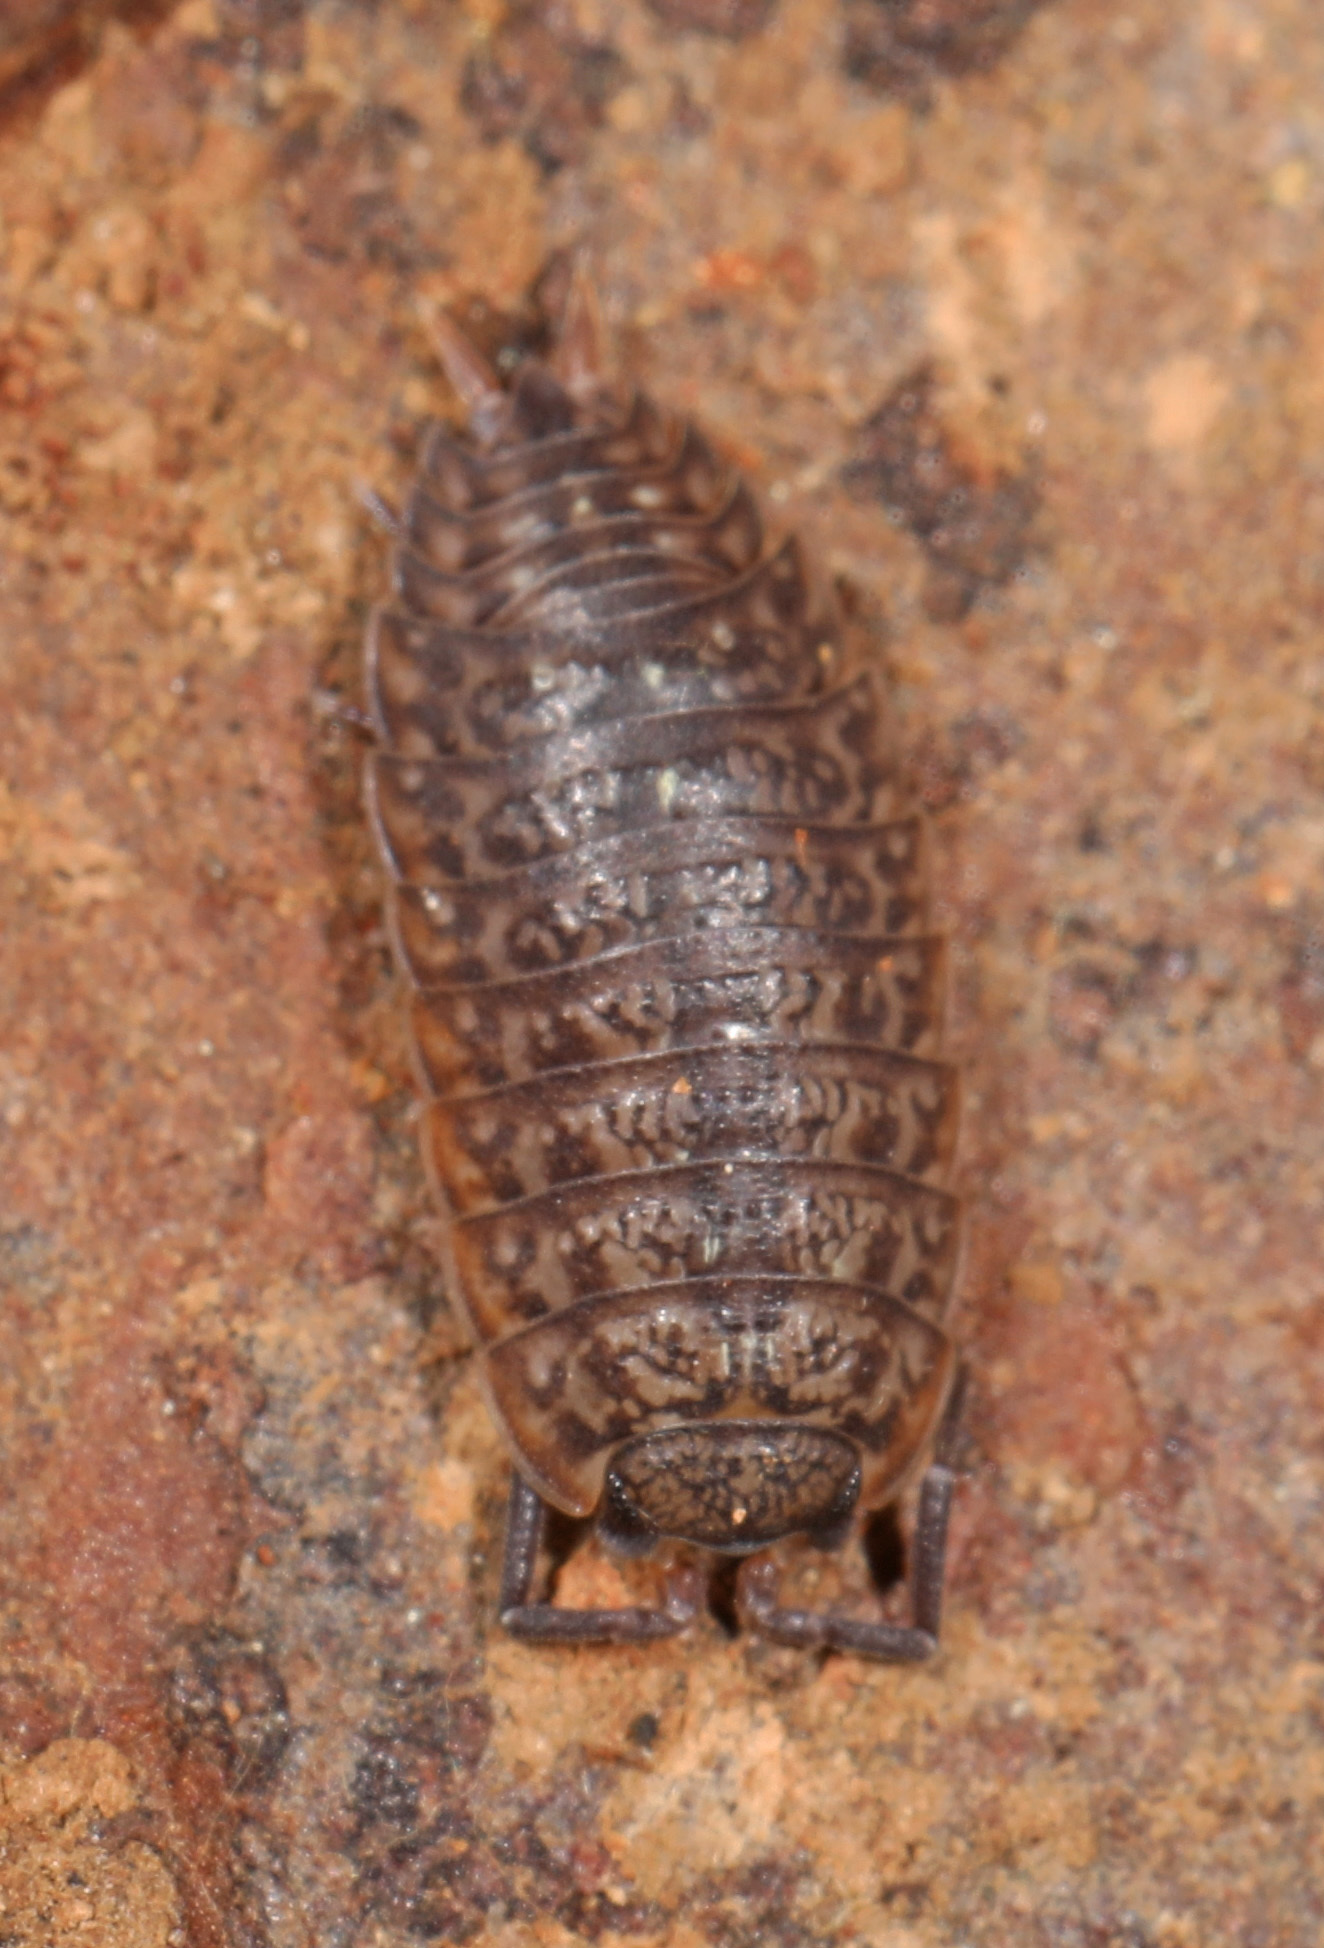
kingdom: Animalia
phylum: Arthropoda
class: Malacostraca
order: Isopoda
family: Porcellionidae
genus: Porcellionides
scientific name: Porcellionides virgatus
